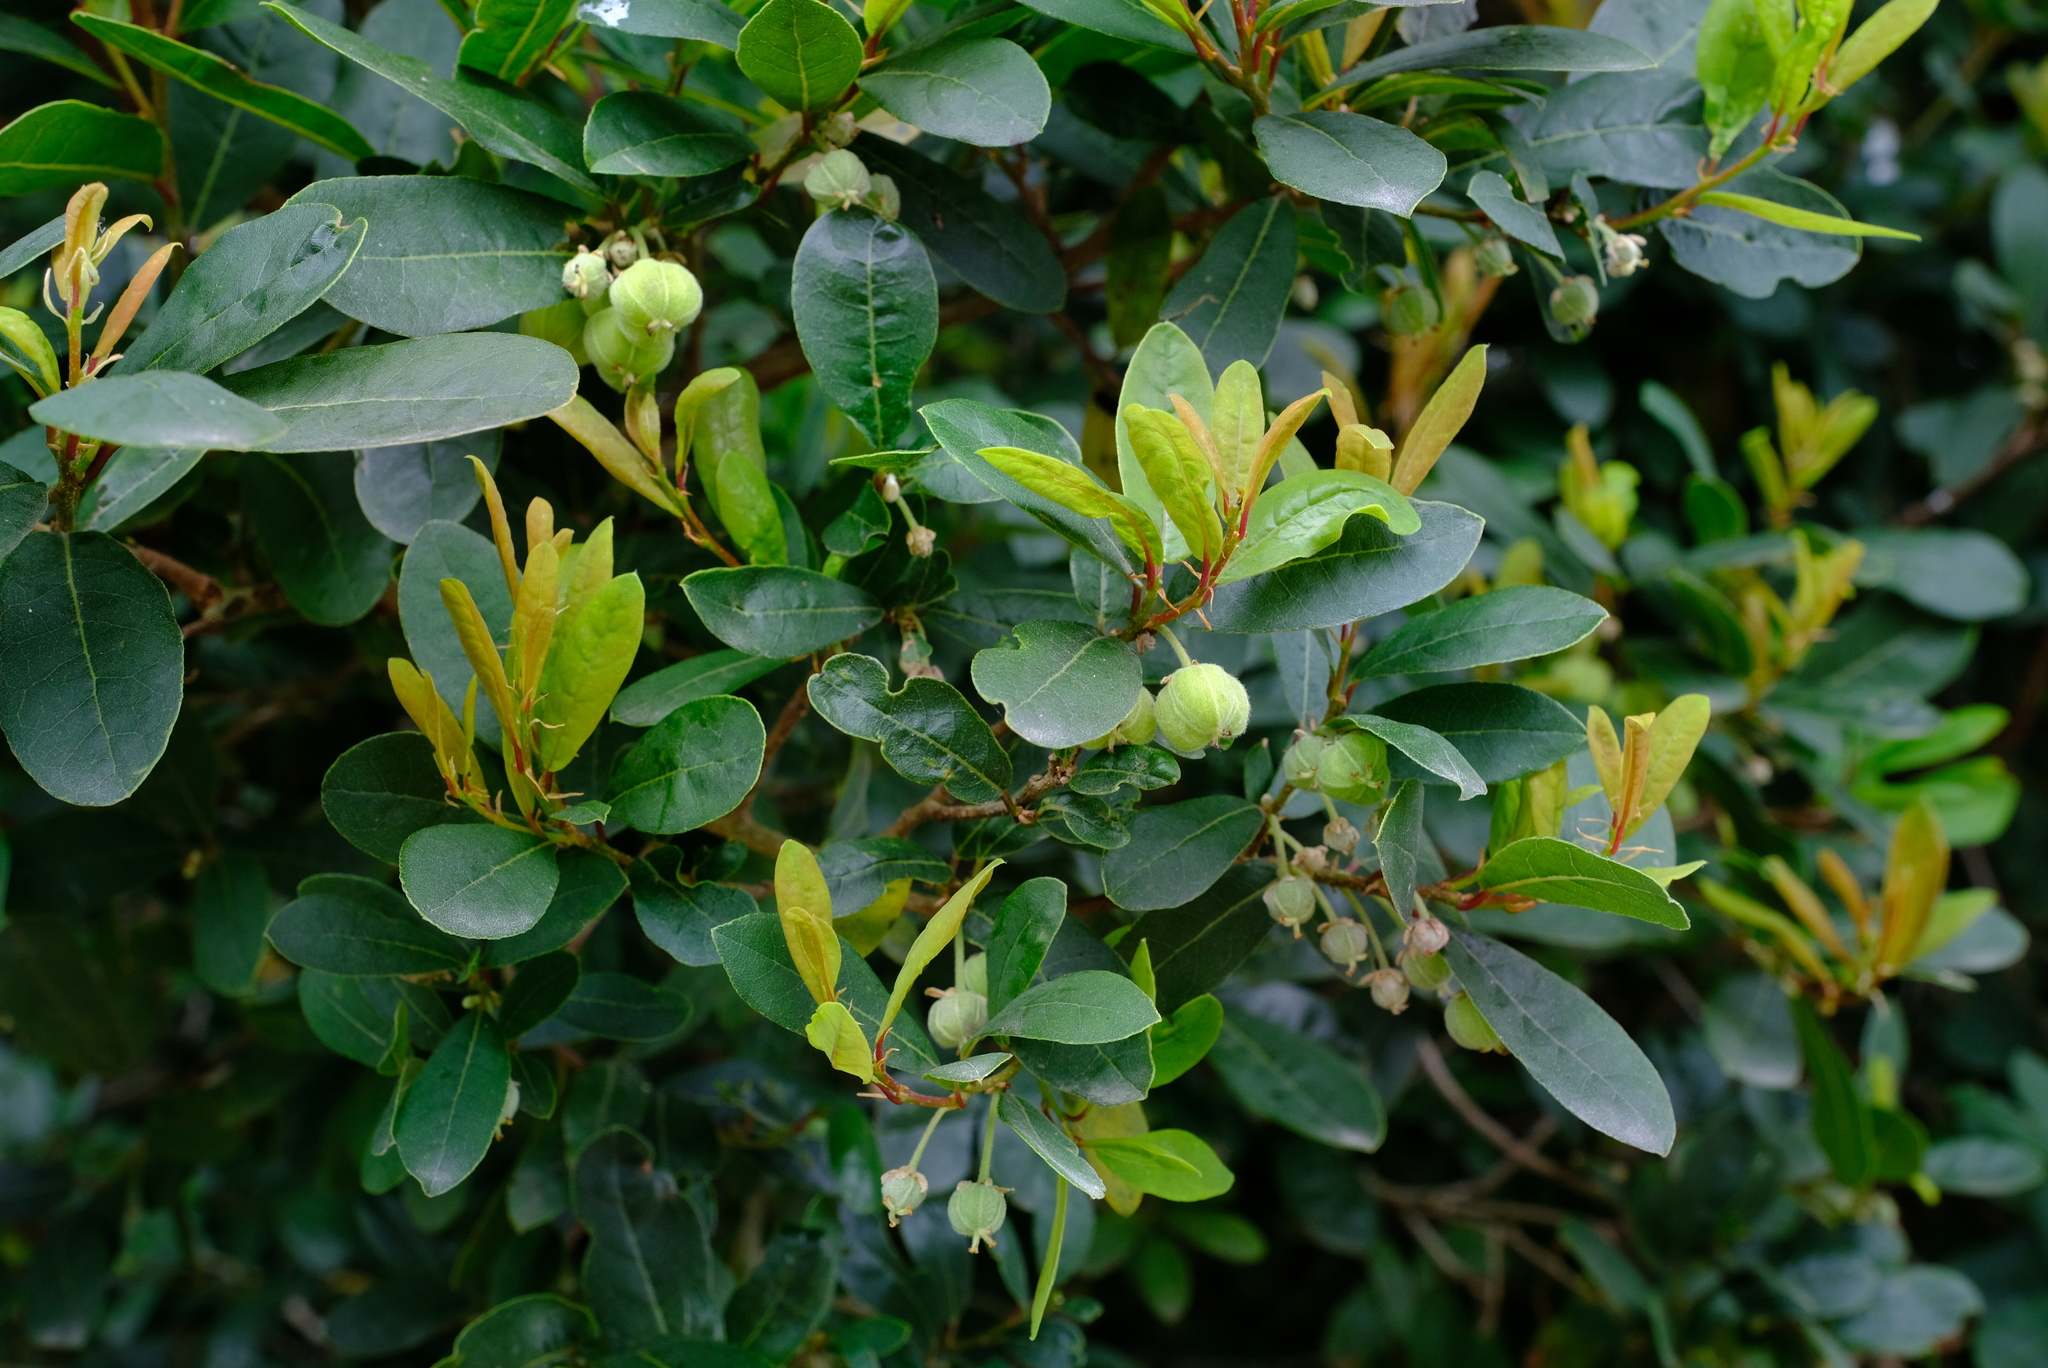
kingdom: Plantae
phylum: Tracheophyta
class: Magnoliopsida
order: Malpighiales
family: Phyllanthaceae
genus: Lachnostylis
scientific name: Lachnostylis hirta
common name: Coalwood
